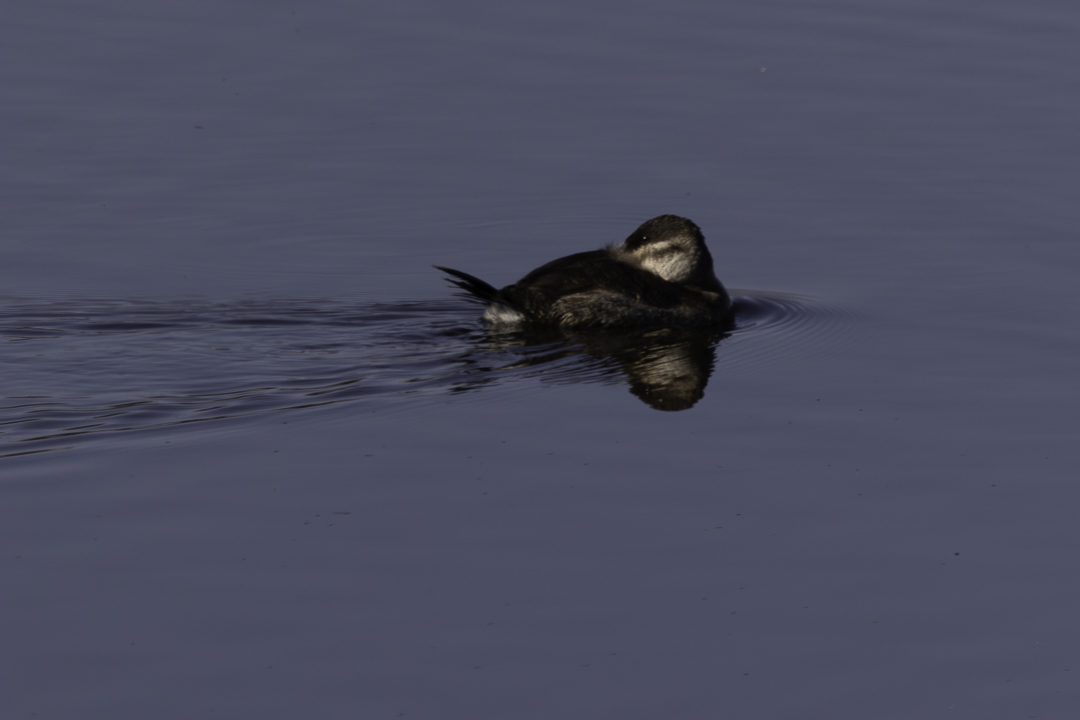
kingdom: Animalia
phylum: Chordata
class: Aves
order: Anseriformes
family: Anatidae
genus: Oxyura
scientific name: Oxyura jamaicensis
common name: Ruddy duck
